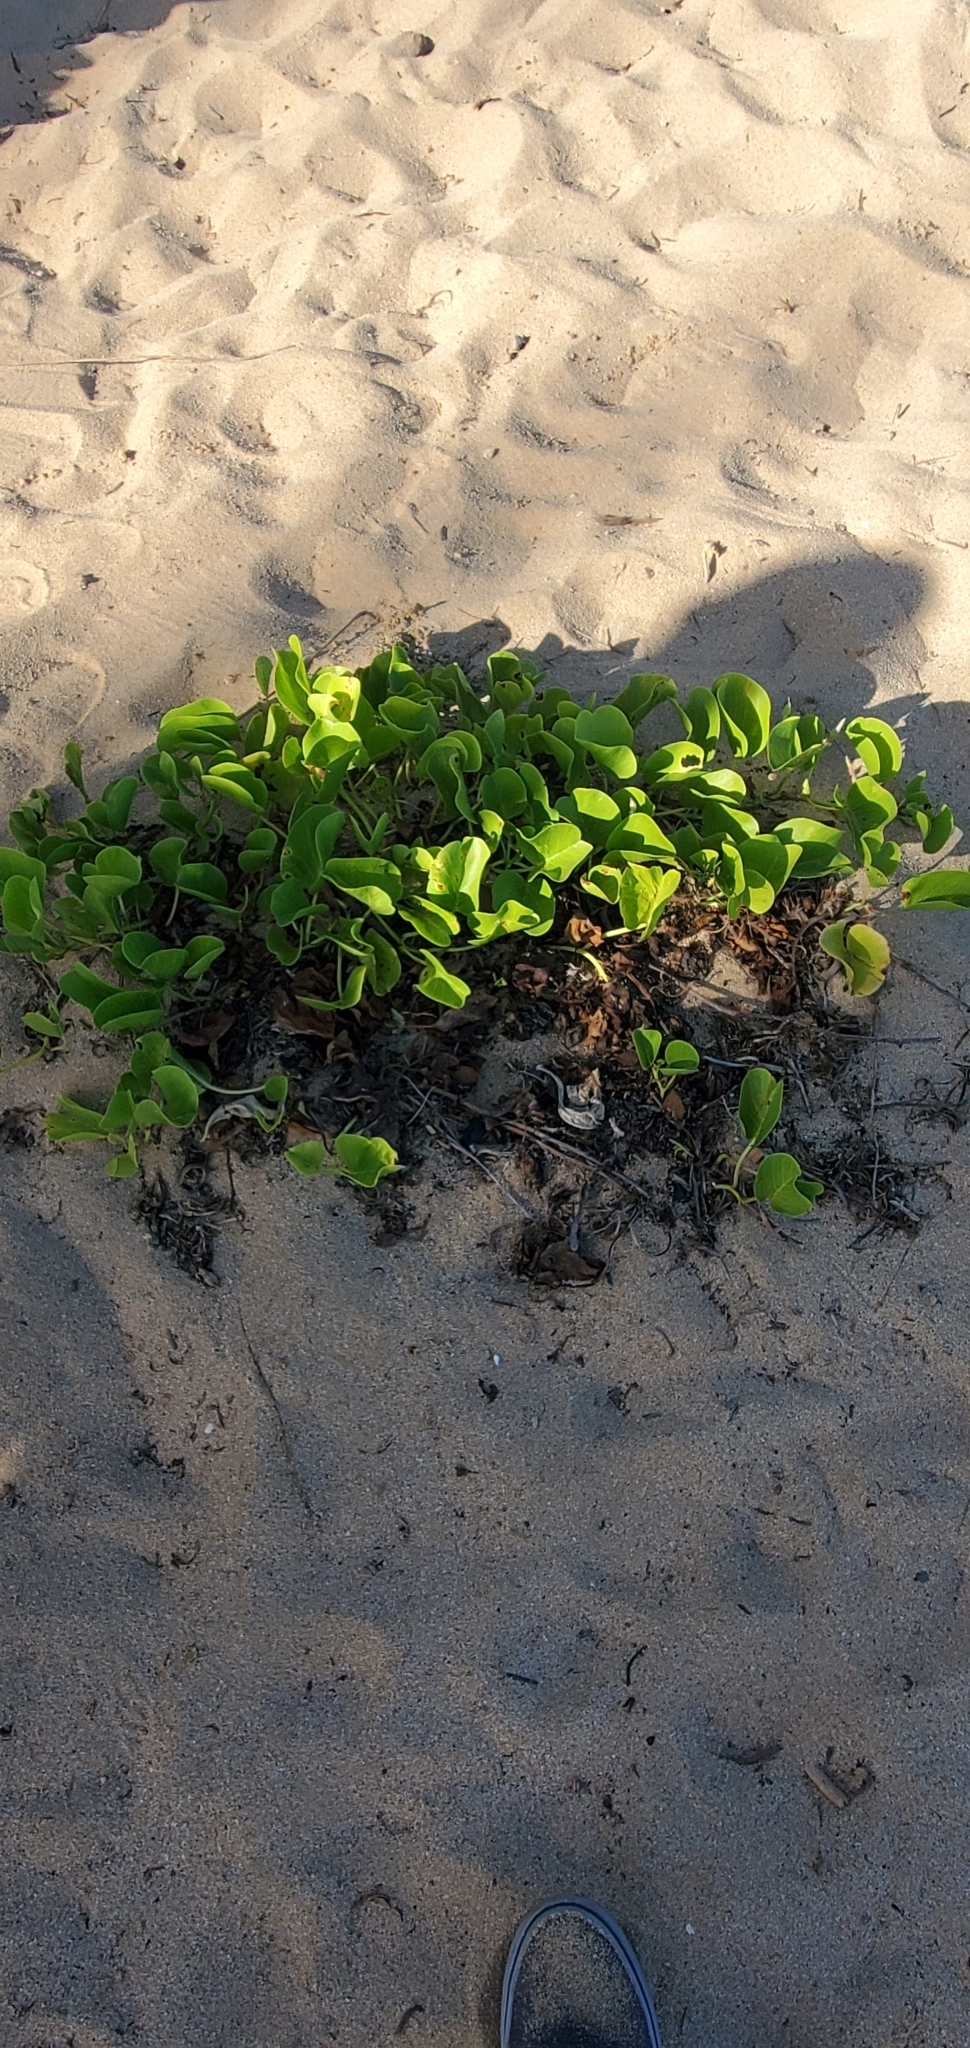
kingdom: Plantae
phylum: Tracheophyta
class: Magnoliopsida
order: Solanales
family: Convolvulaceae
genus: Ipomoea
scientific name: Ipomoea pes-caprae
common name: Beach morning glory
